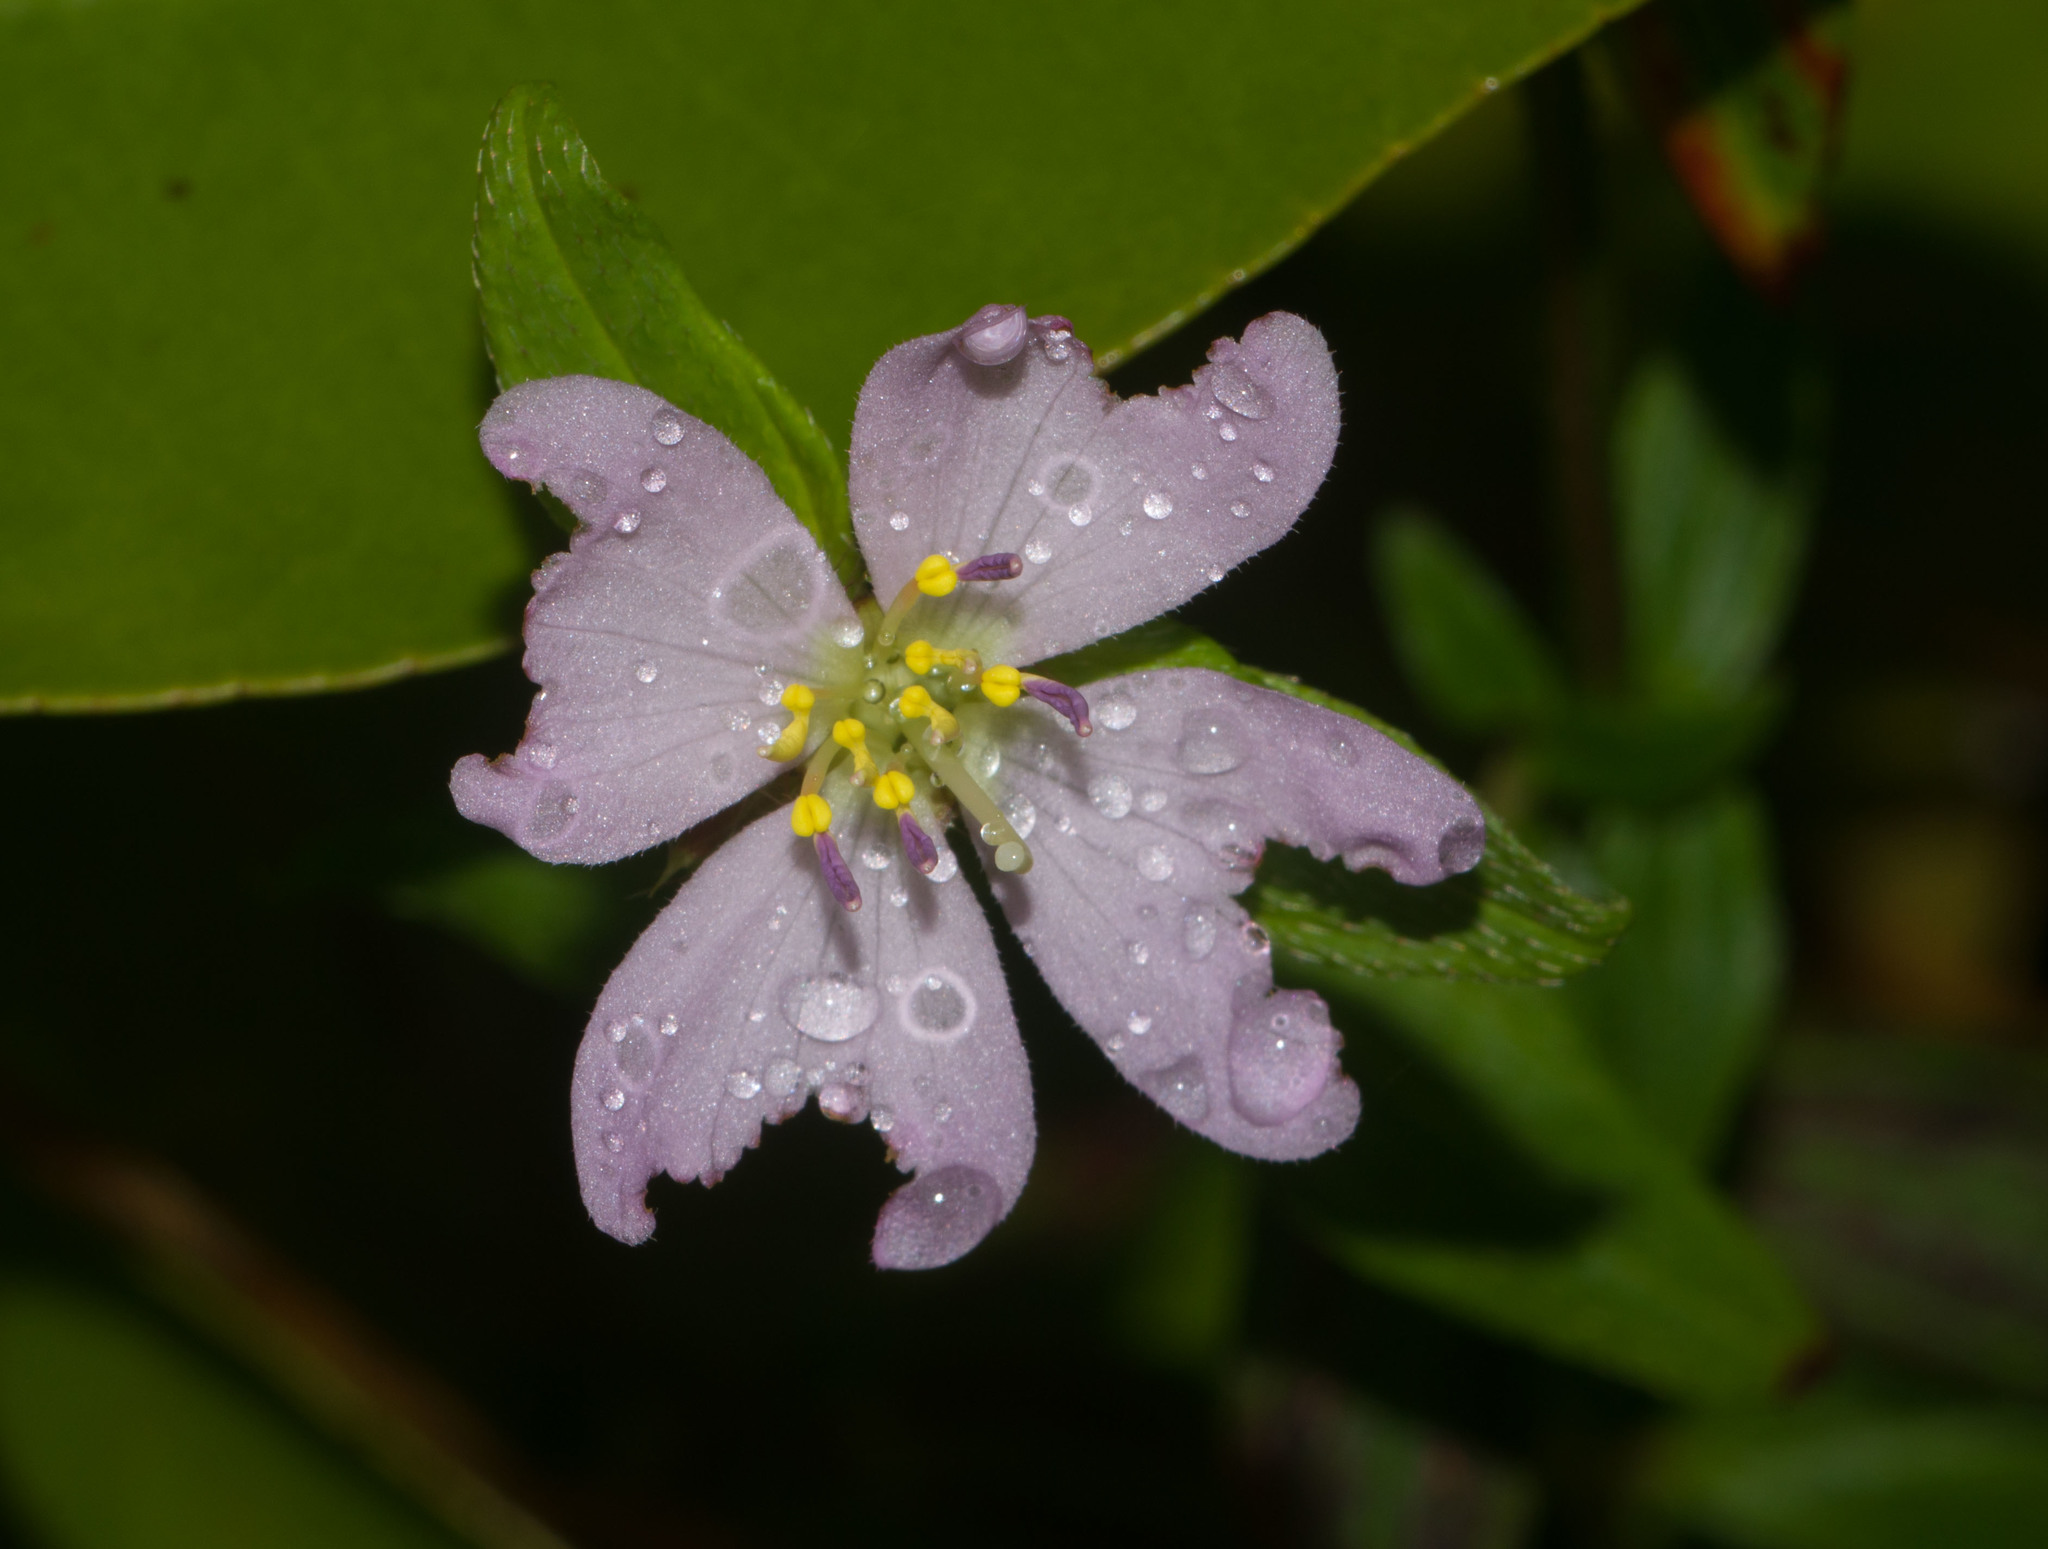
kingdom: Plantae
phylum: Tracheophyta
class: Magnoliopsida
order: Myrtales
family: Melastomataceae
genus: Pterolepis
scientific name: Pterolepis glomerata
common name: False meadowbeauty
